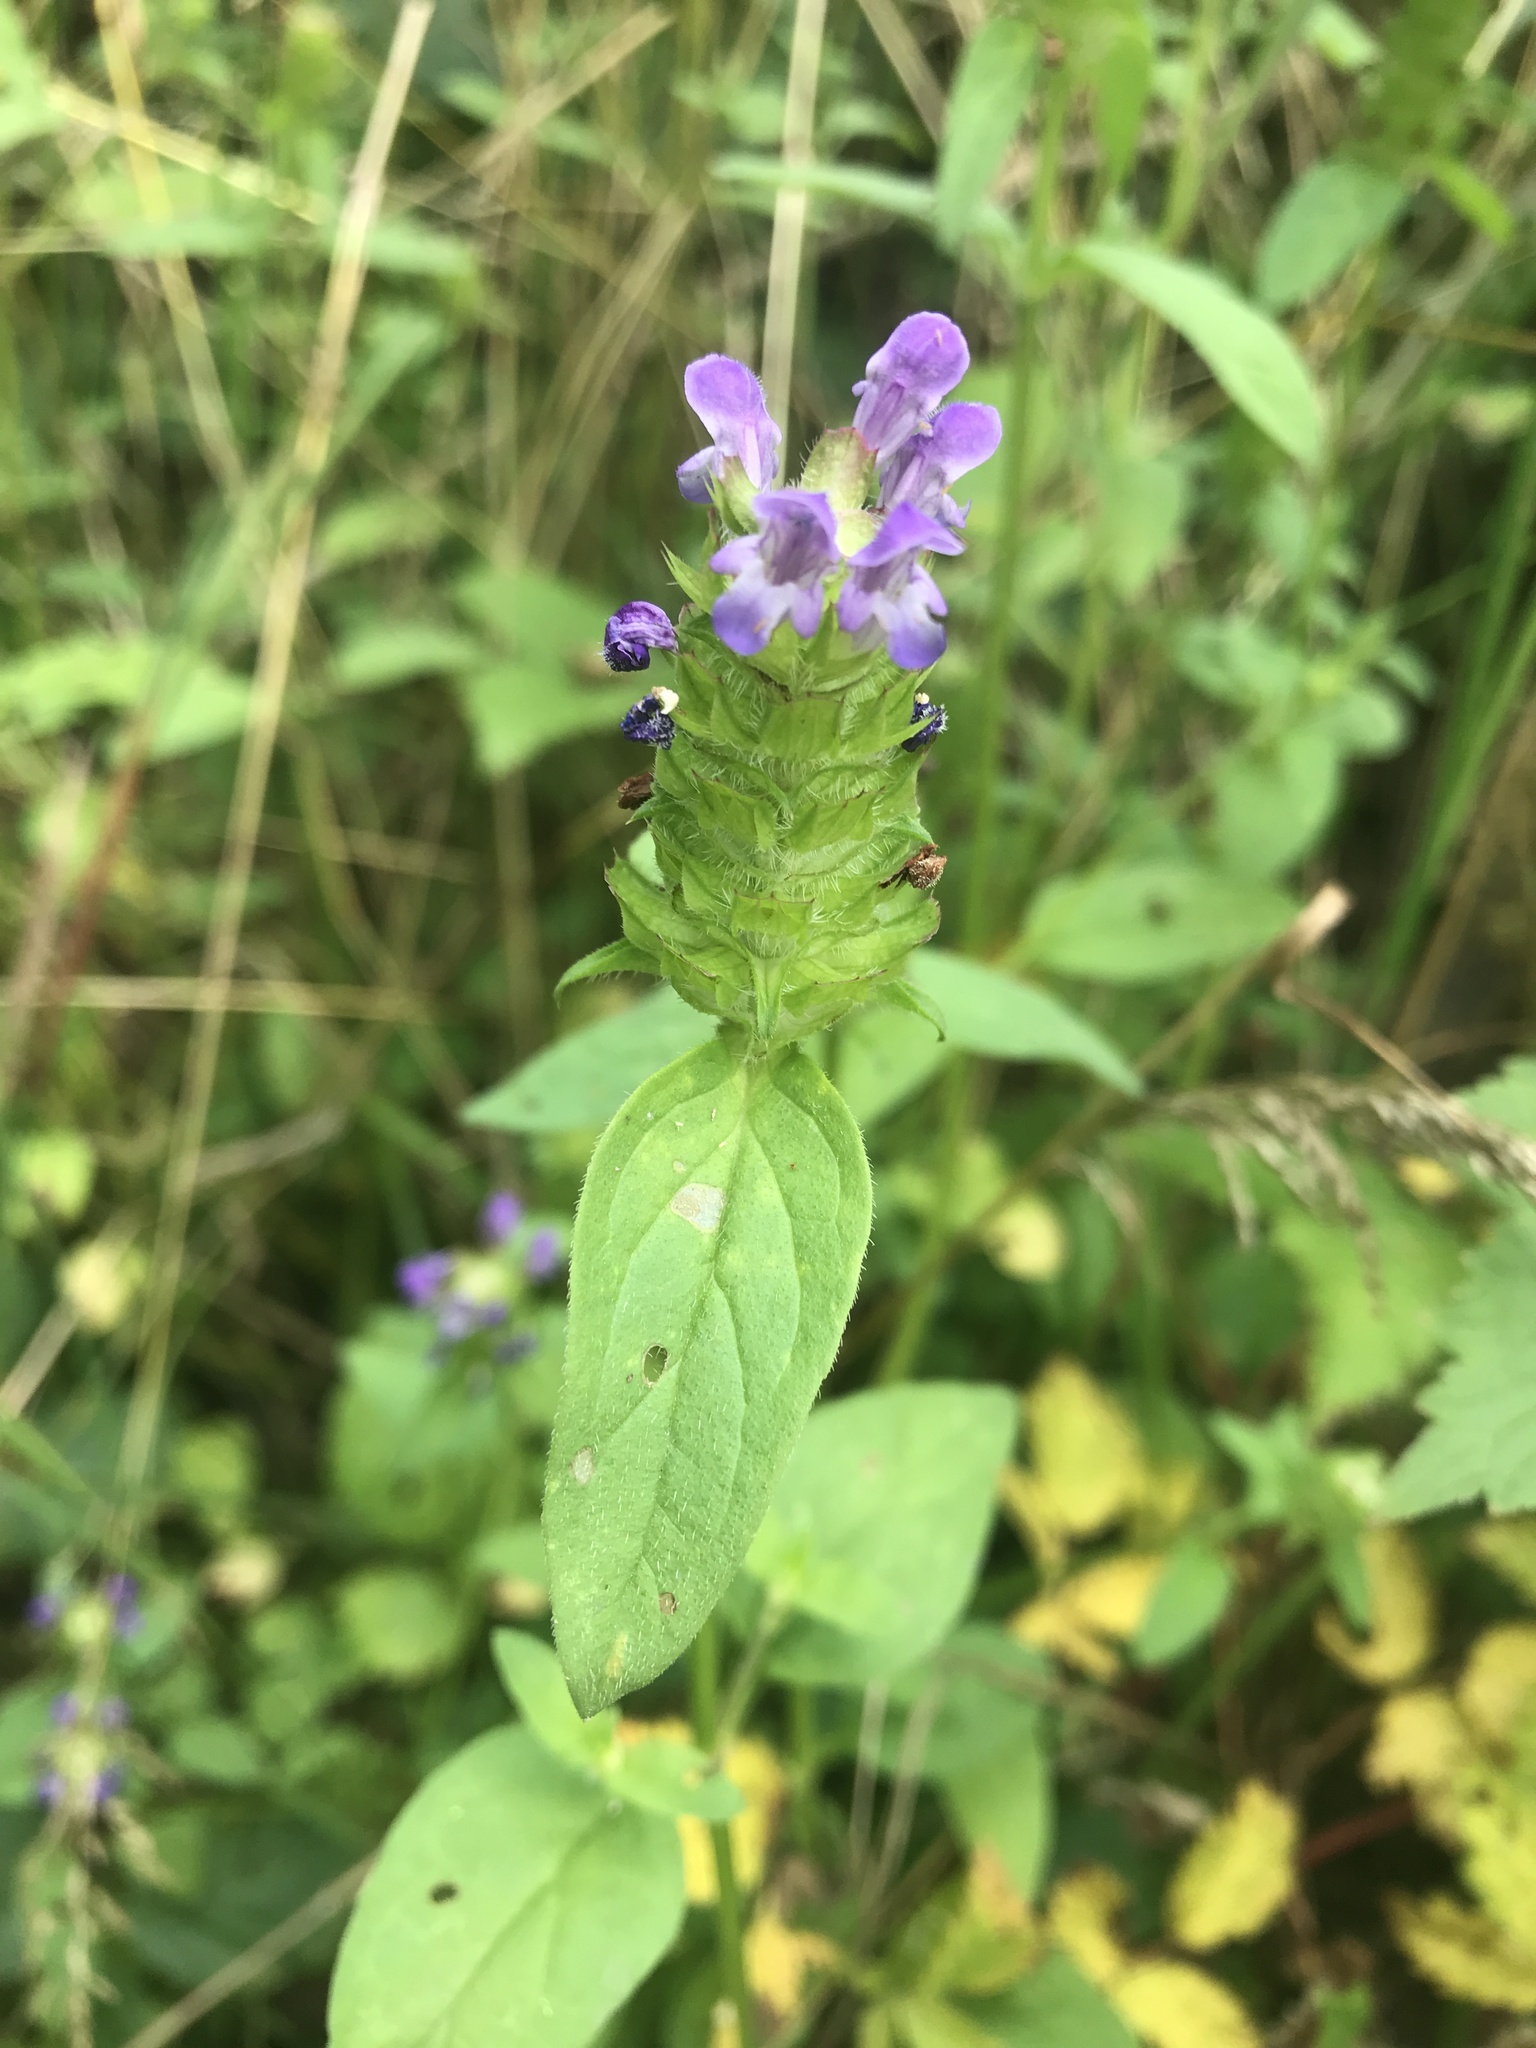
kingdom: Plantae
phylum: Tracheophyta
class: Magnoliopsida
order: Lamiales
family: Lamiaceae
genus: Prunella
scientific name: Prunella vulgaris
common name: Heal-all
